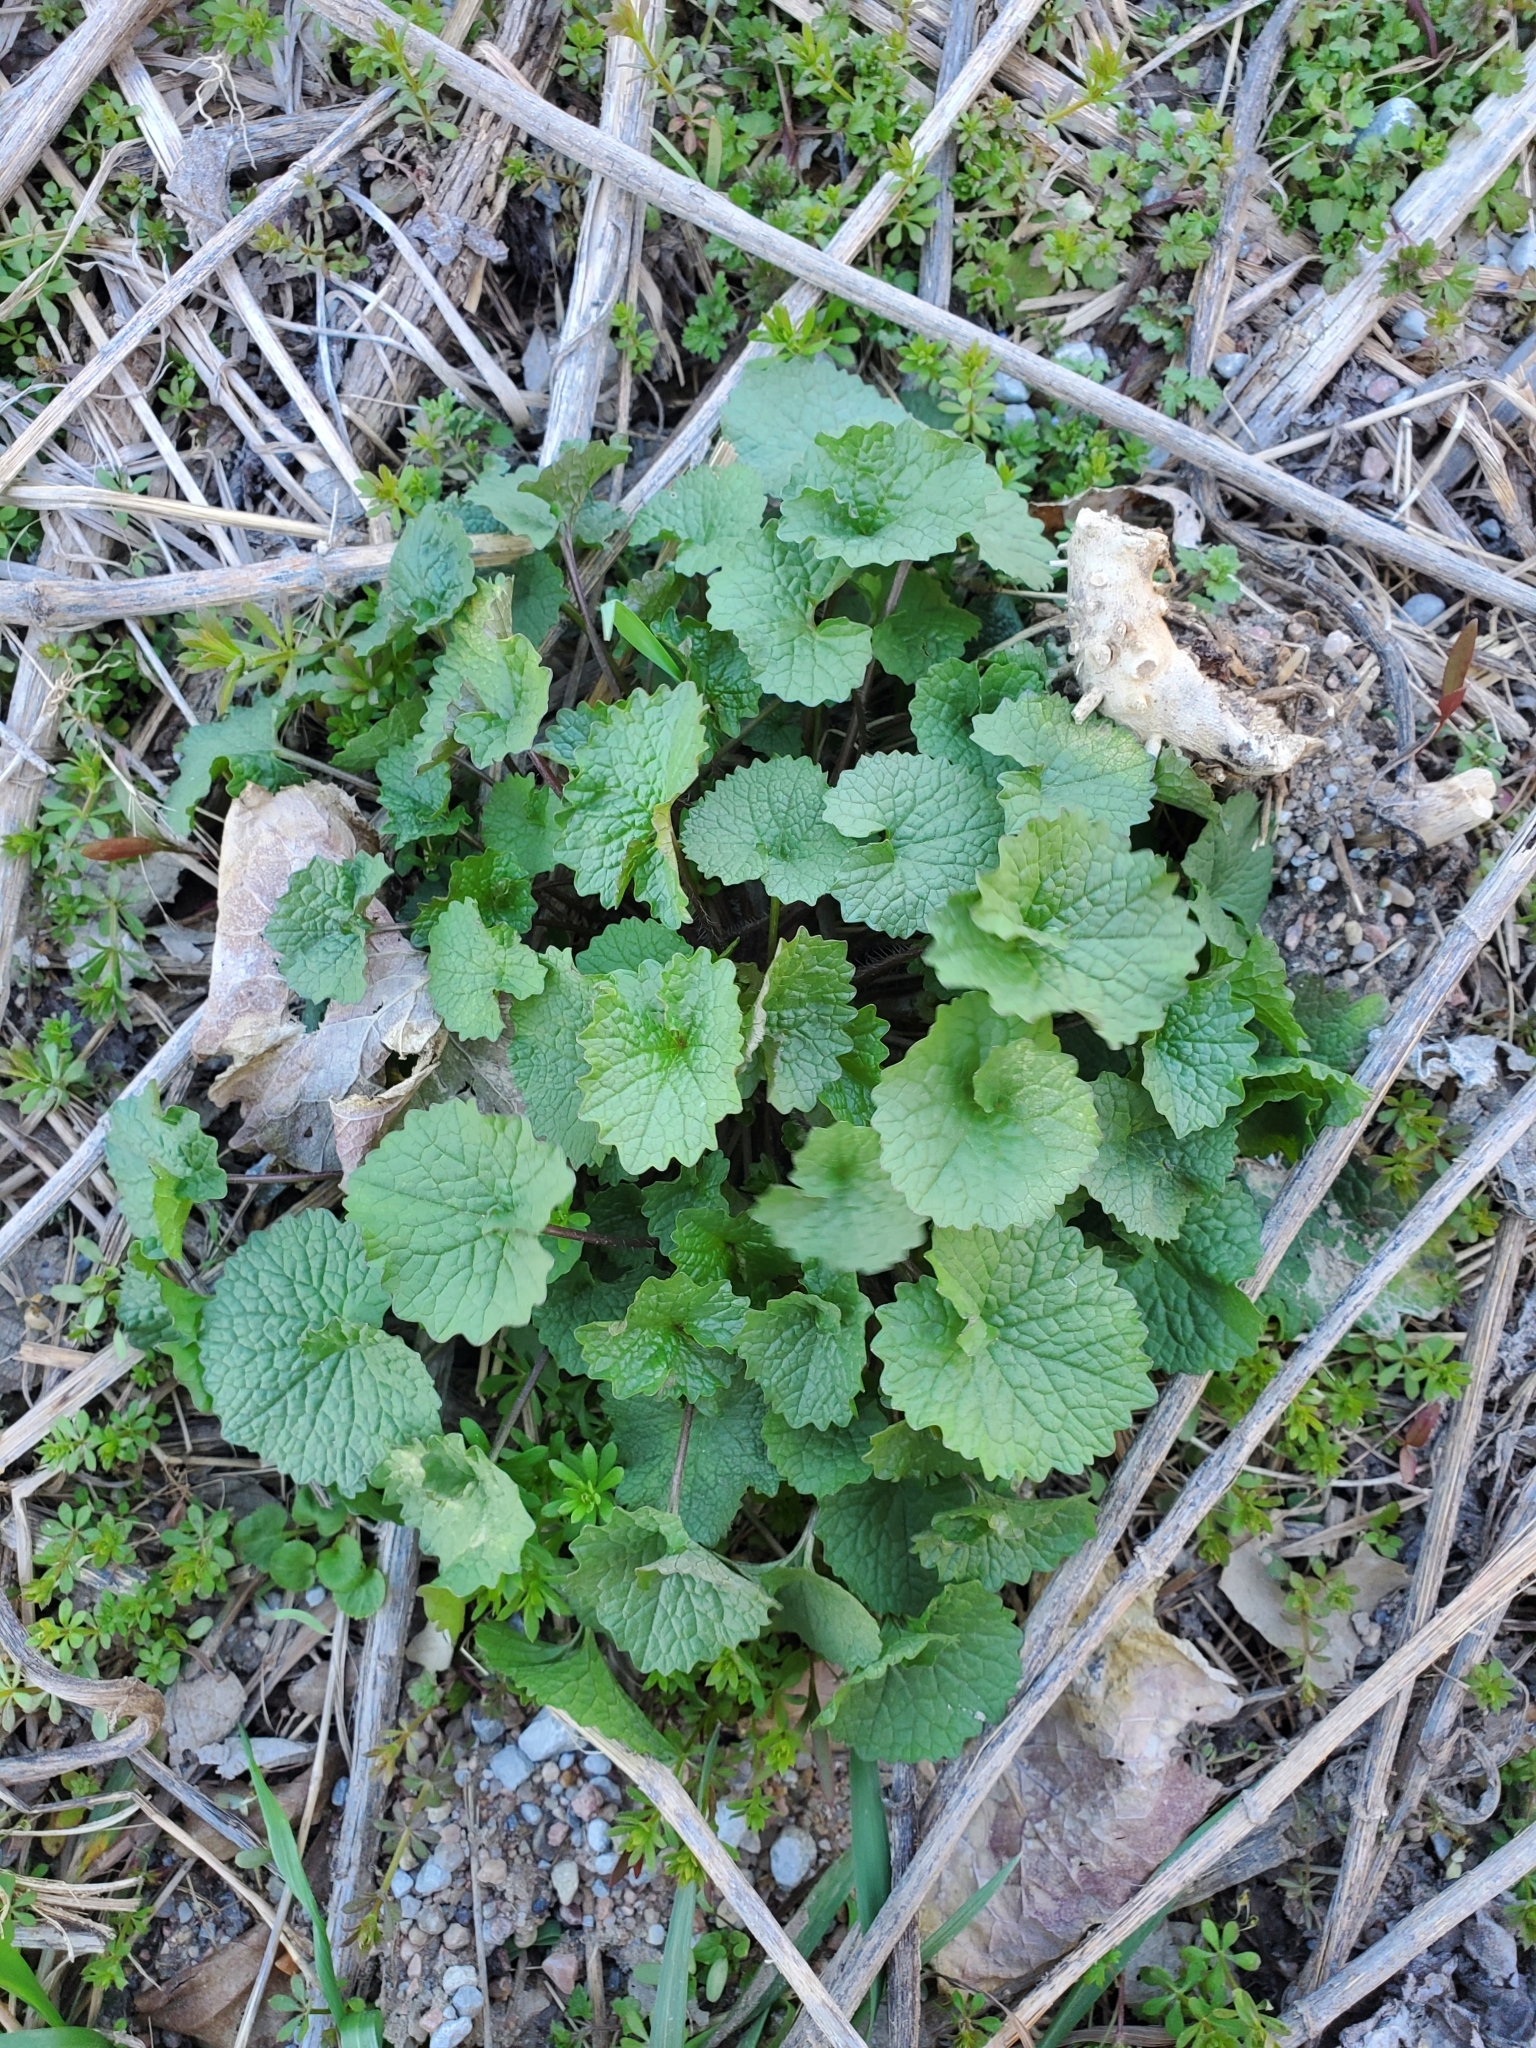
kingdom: Plantae
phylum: Tracheophyta
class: Magnoliopsida
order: Brassicales
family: Brassicaceae
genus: Alliaria
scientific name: Alliaria petiolata
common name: Garlic mustard
